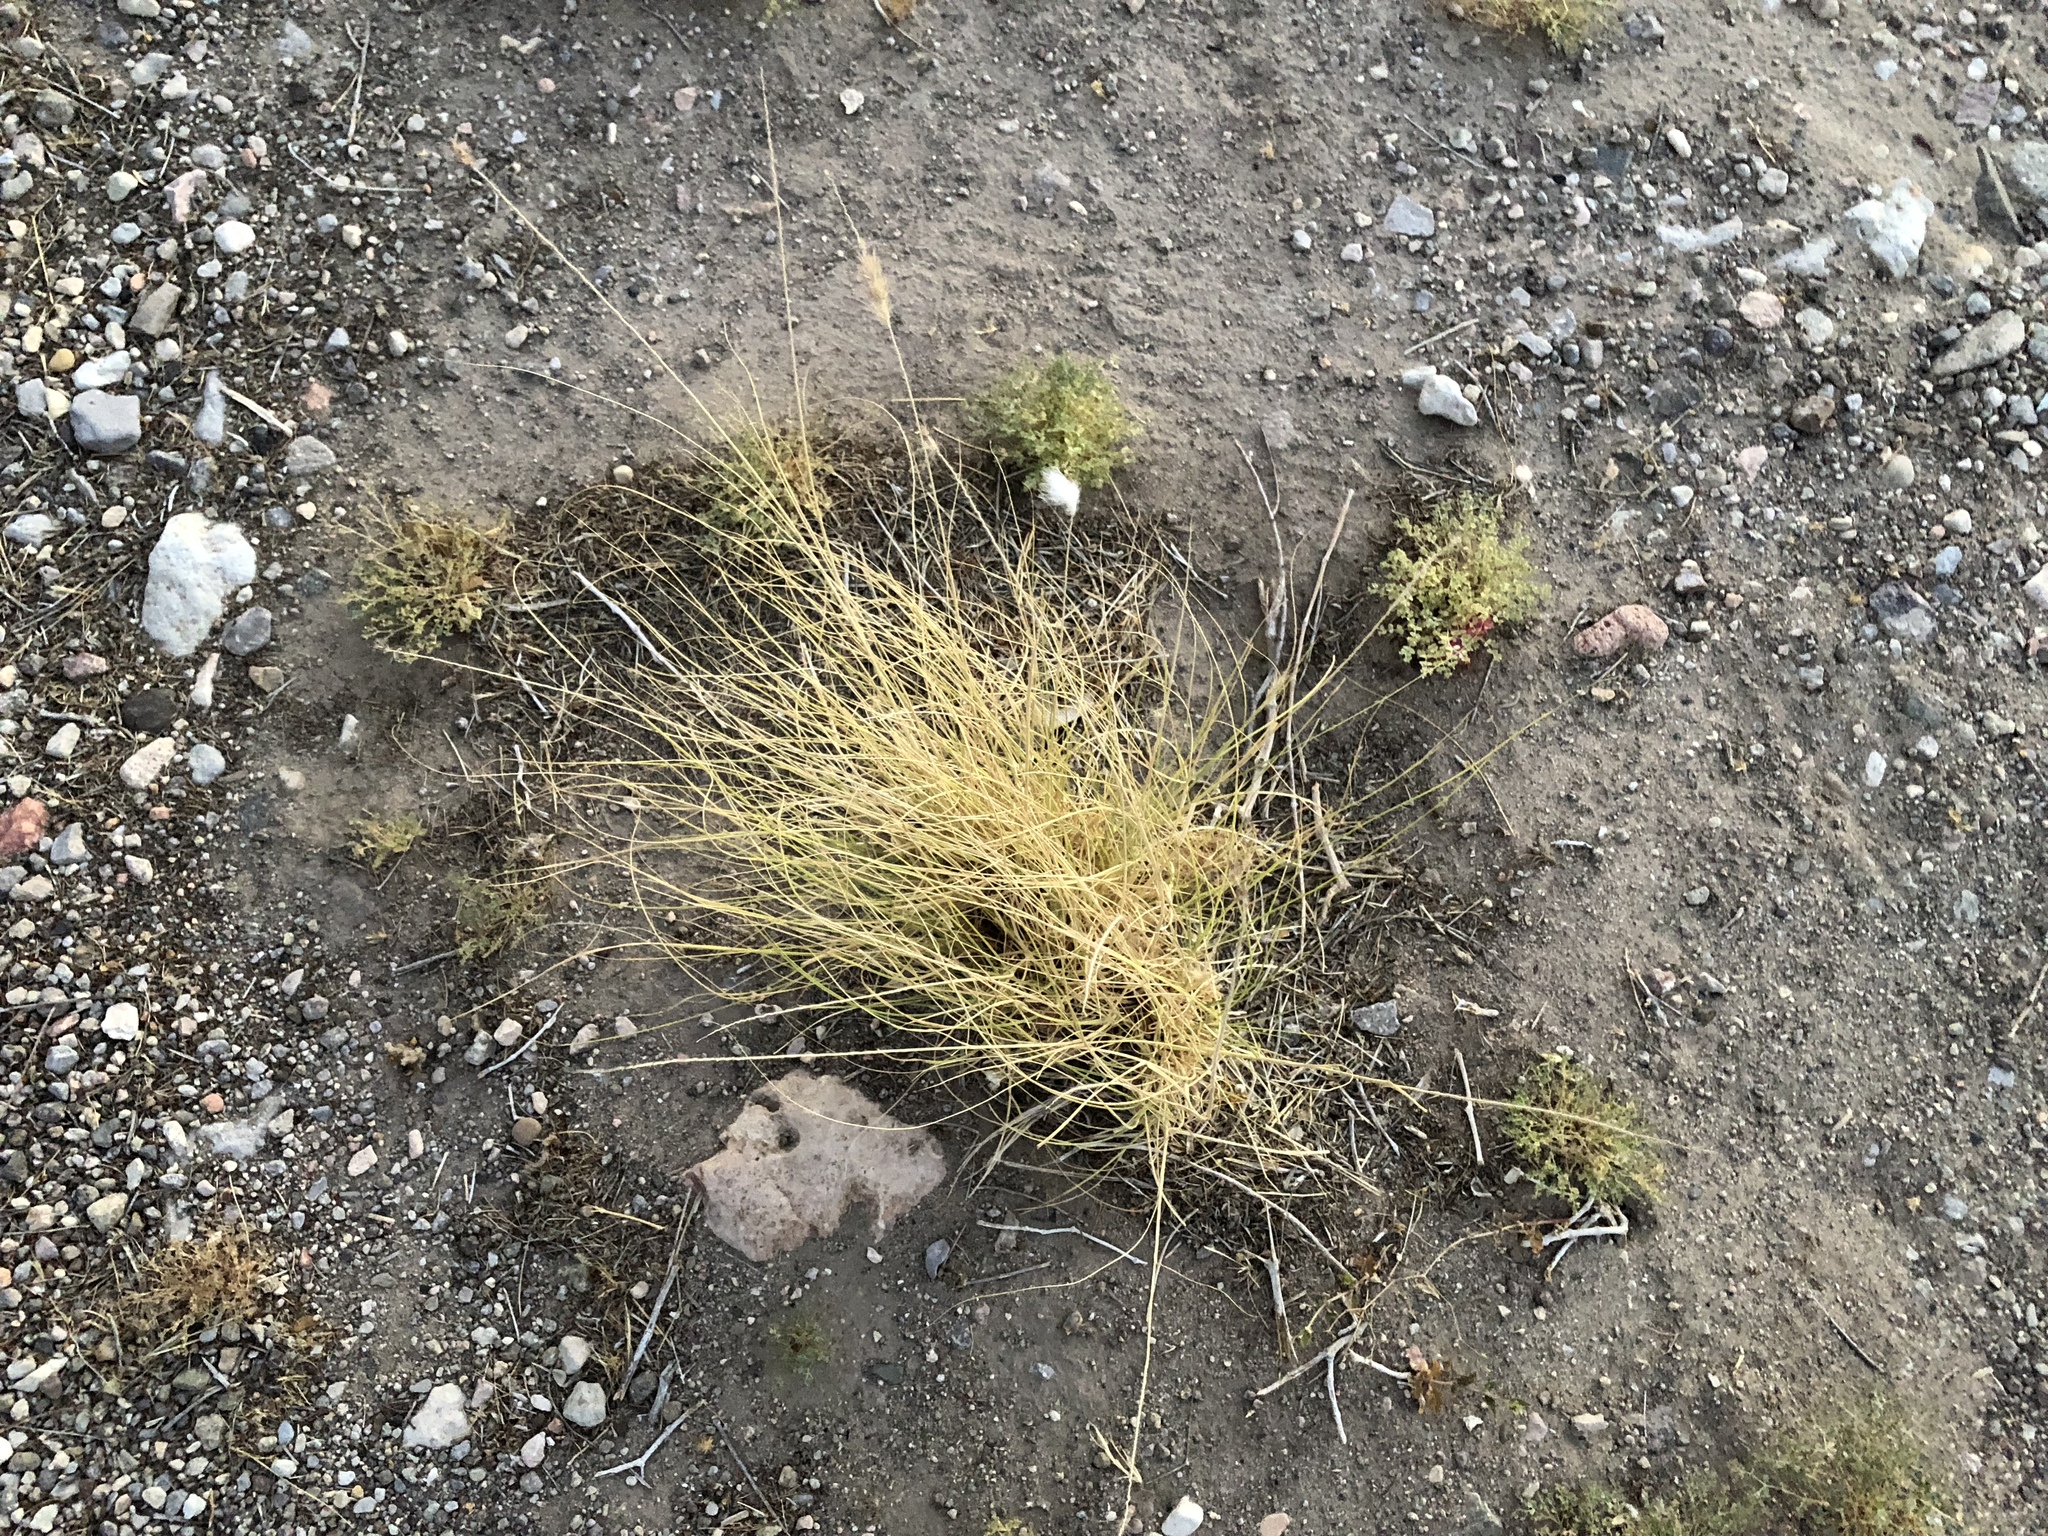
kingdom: Plantae
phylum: Tracheophyta
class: Liliopsida
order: Poales
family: Poaceae
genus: Cenchrus
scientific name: Cenchrus setaceus
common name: Crimson fountaingrass
